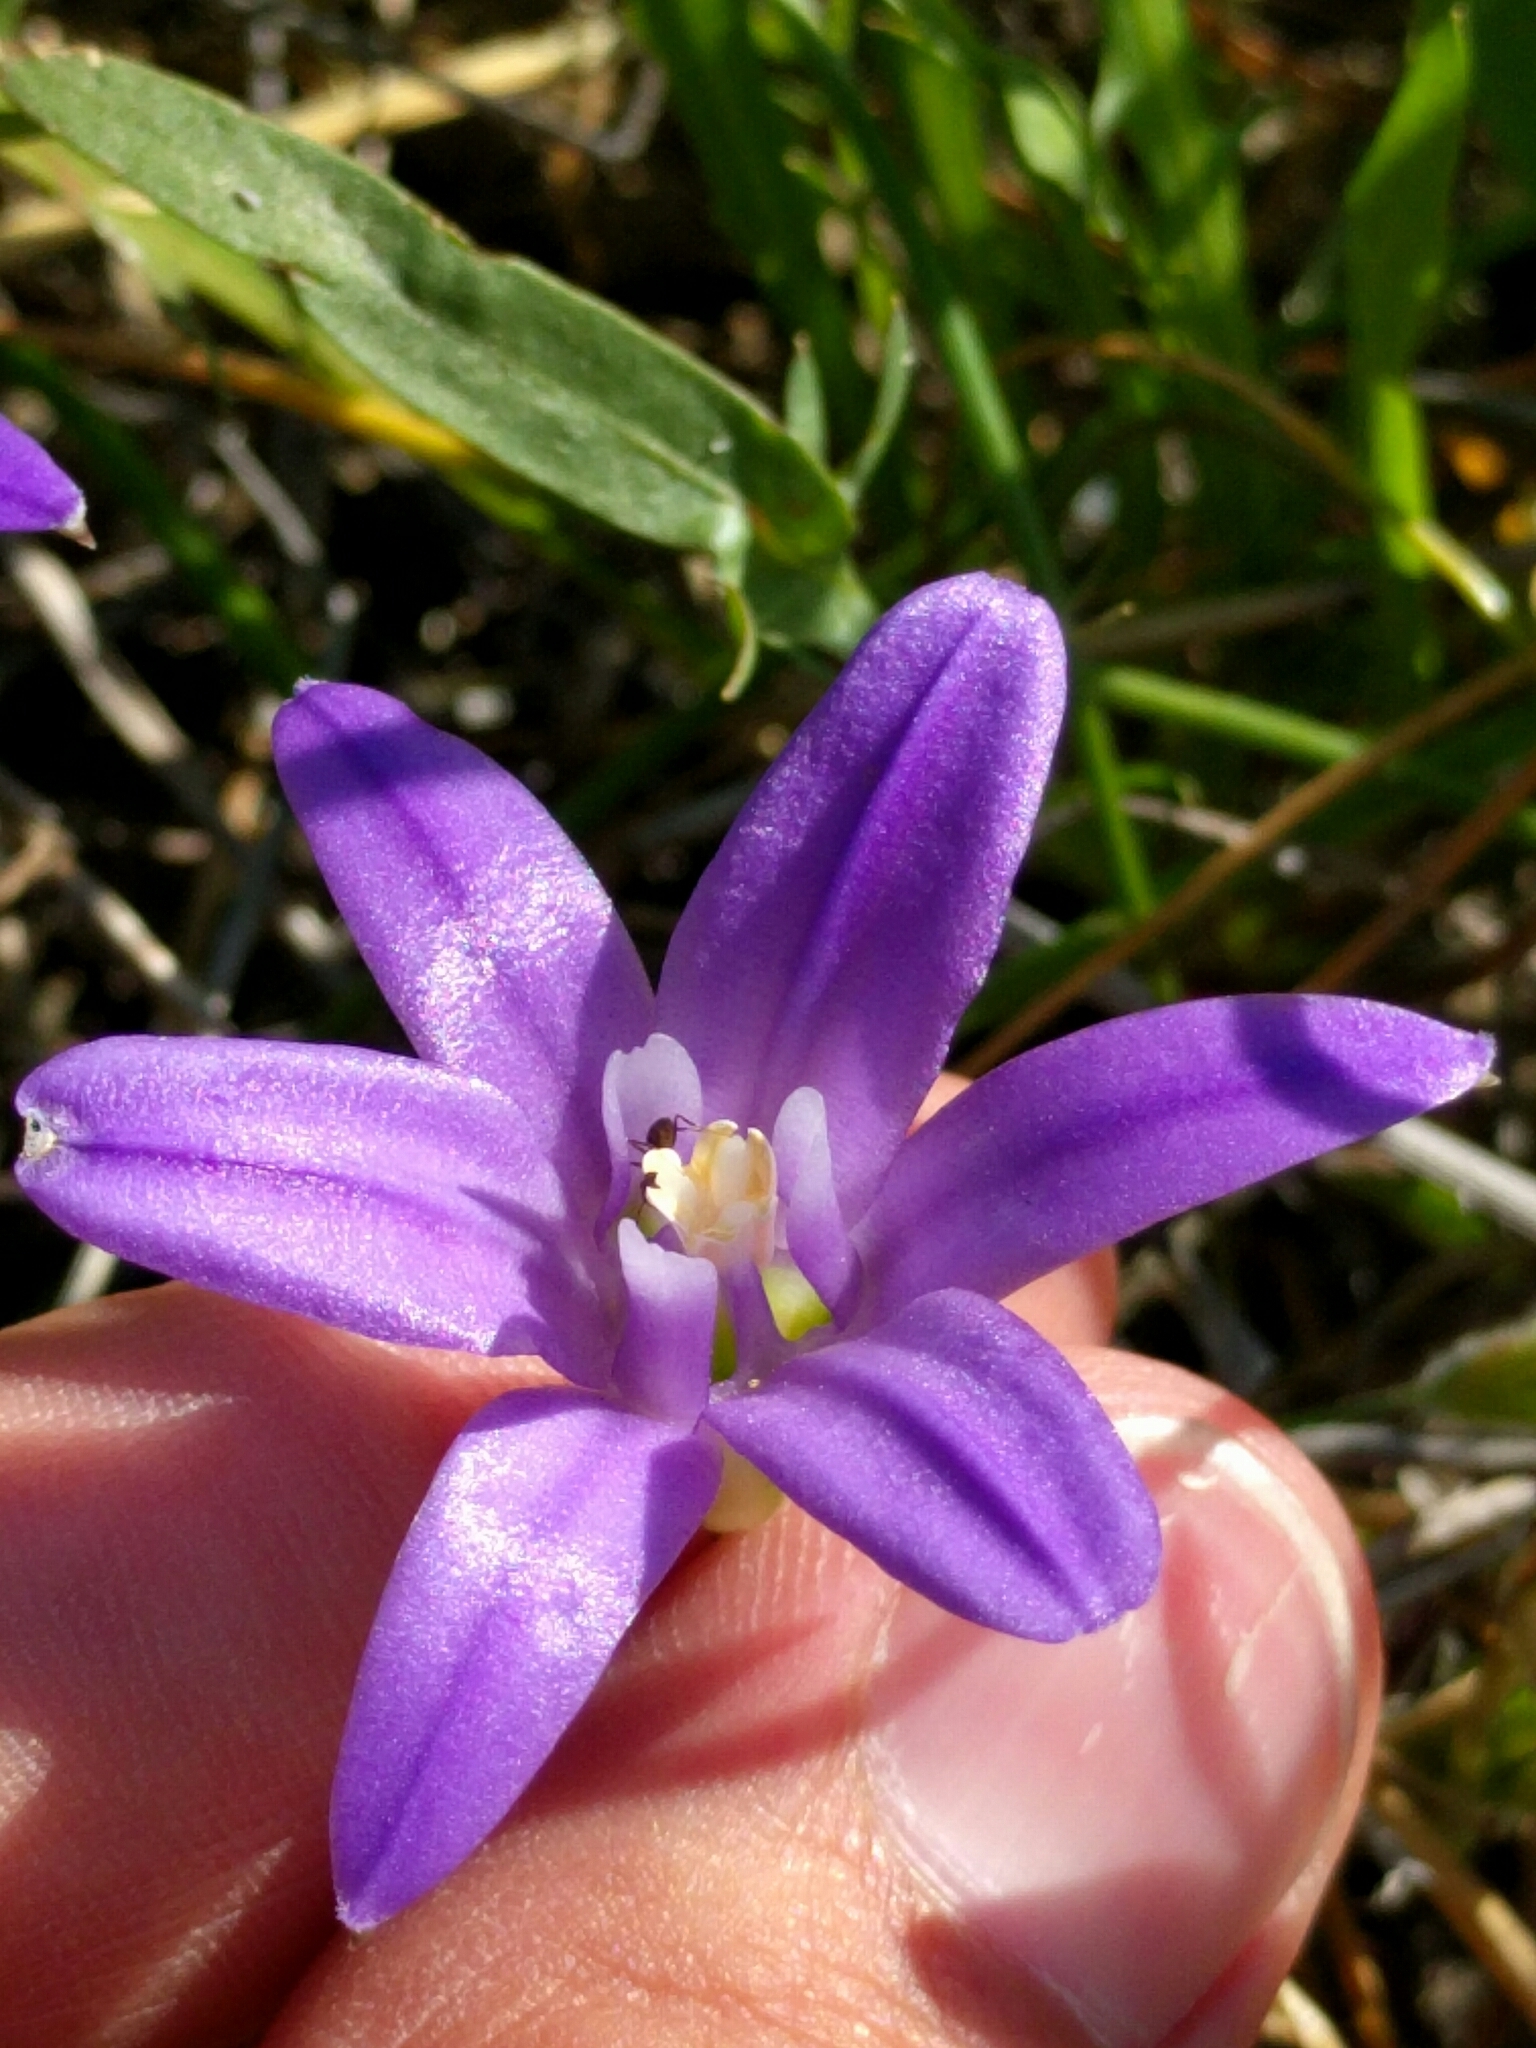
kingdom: Plantae
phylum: Tracheophyta
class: Liliopsida
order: Asparagales
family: Asparagaceae
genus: Brodiaea
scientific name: Brodiaea terrestris
